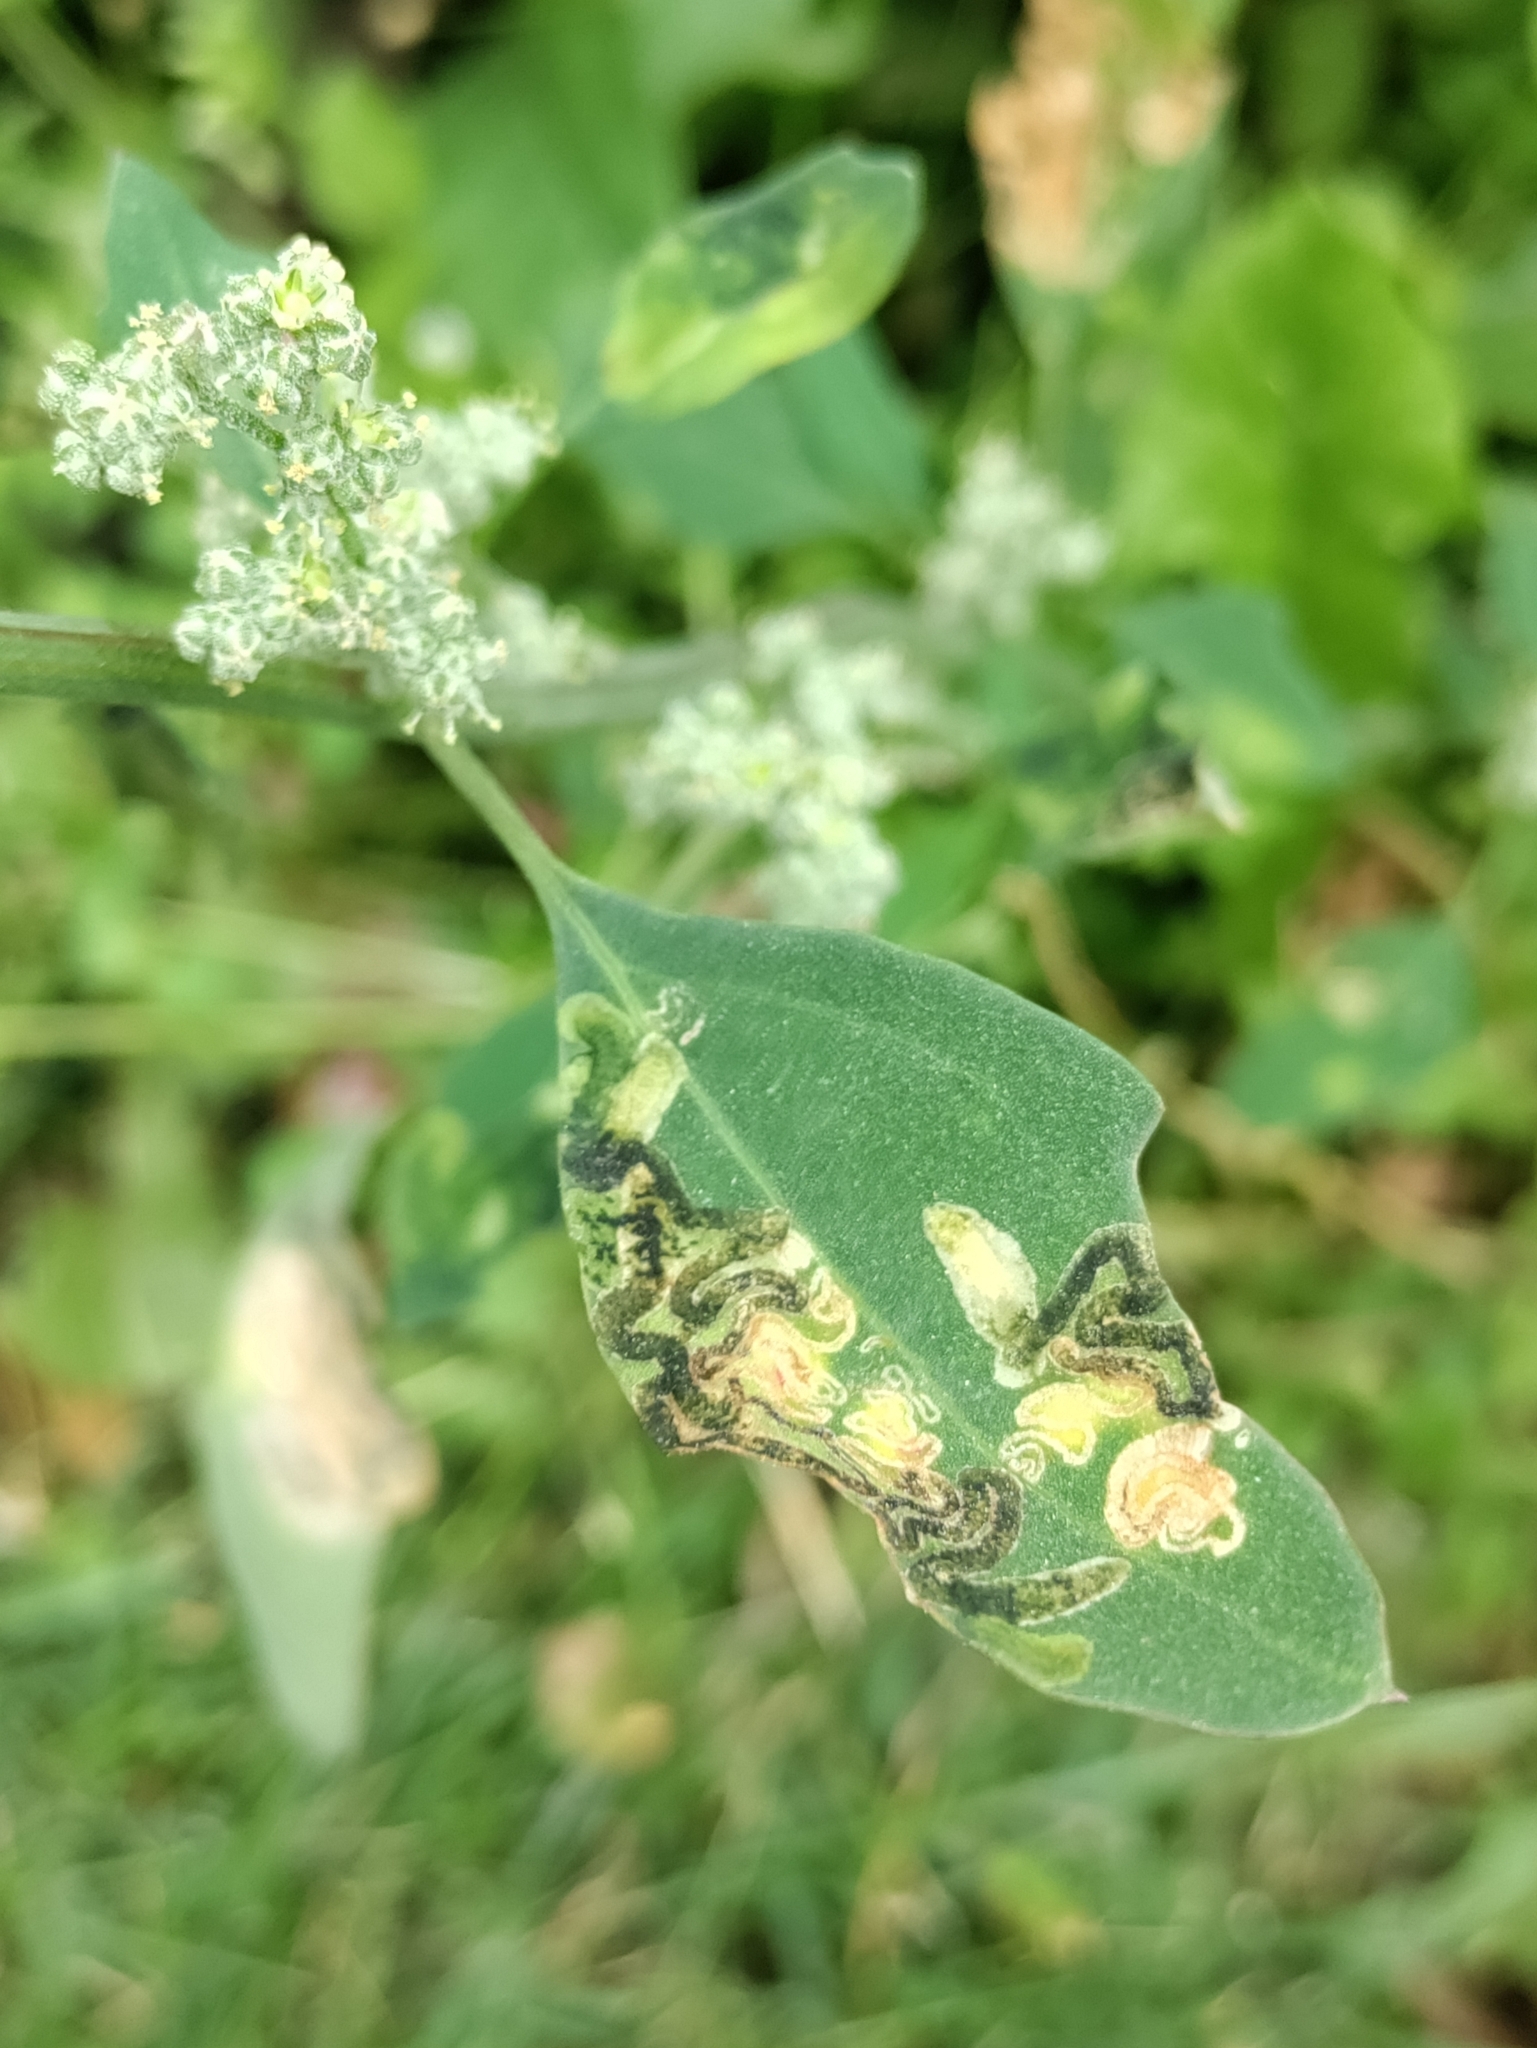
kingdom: Animalia
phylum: Arthropoda
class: Insecta
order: Lepidoptera
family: Gelechiidae
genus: Chrysoesthia
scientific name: Chrysoesthia drurella
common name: Flame neb
